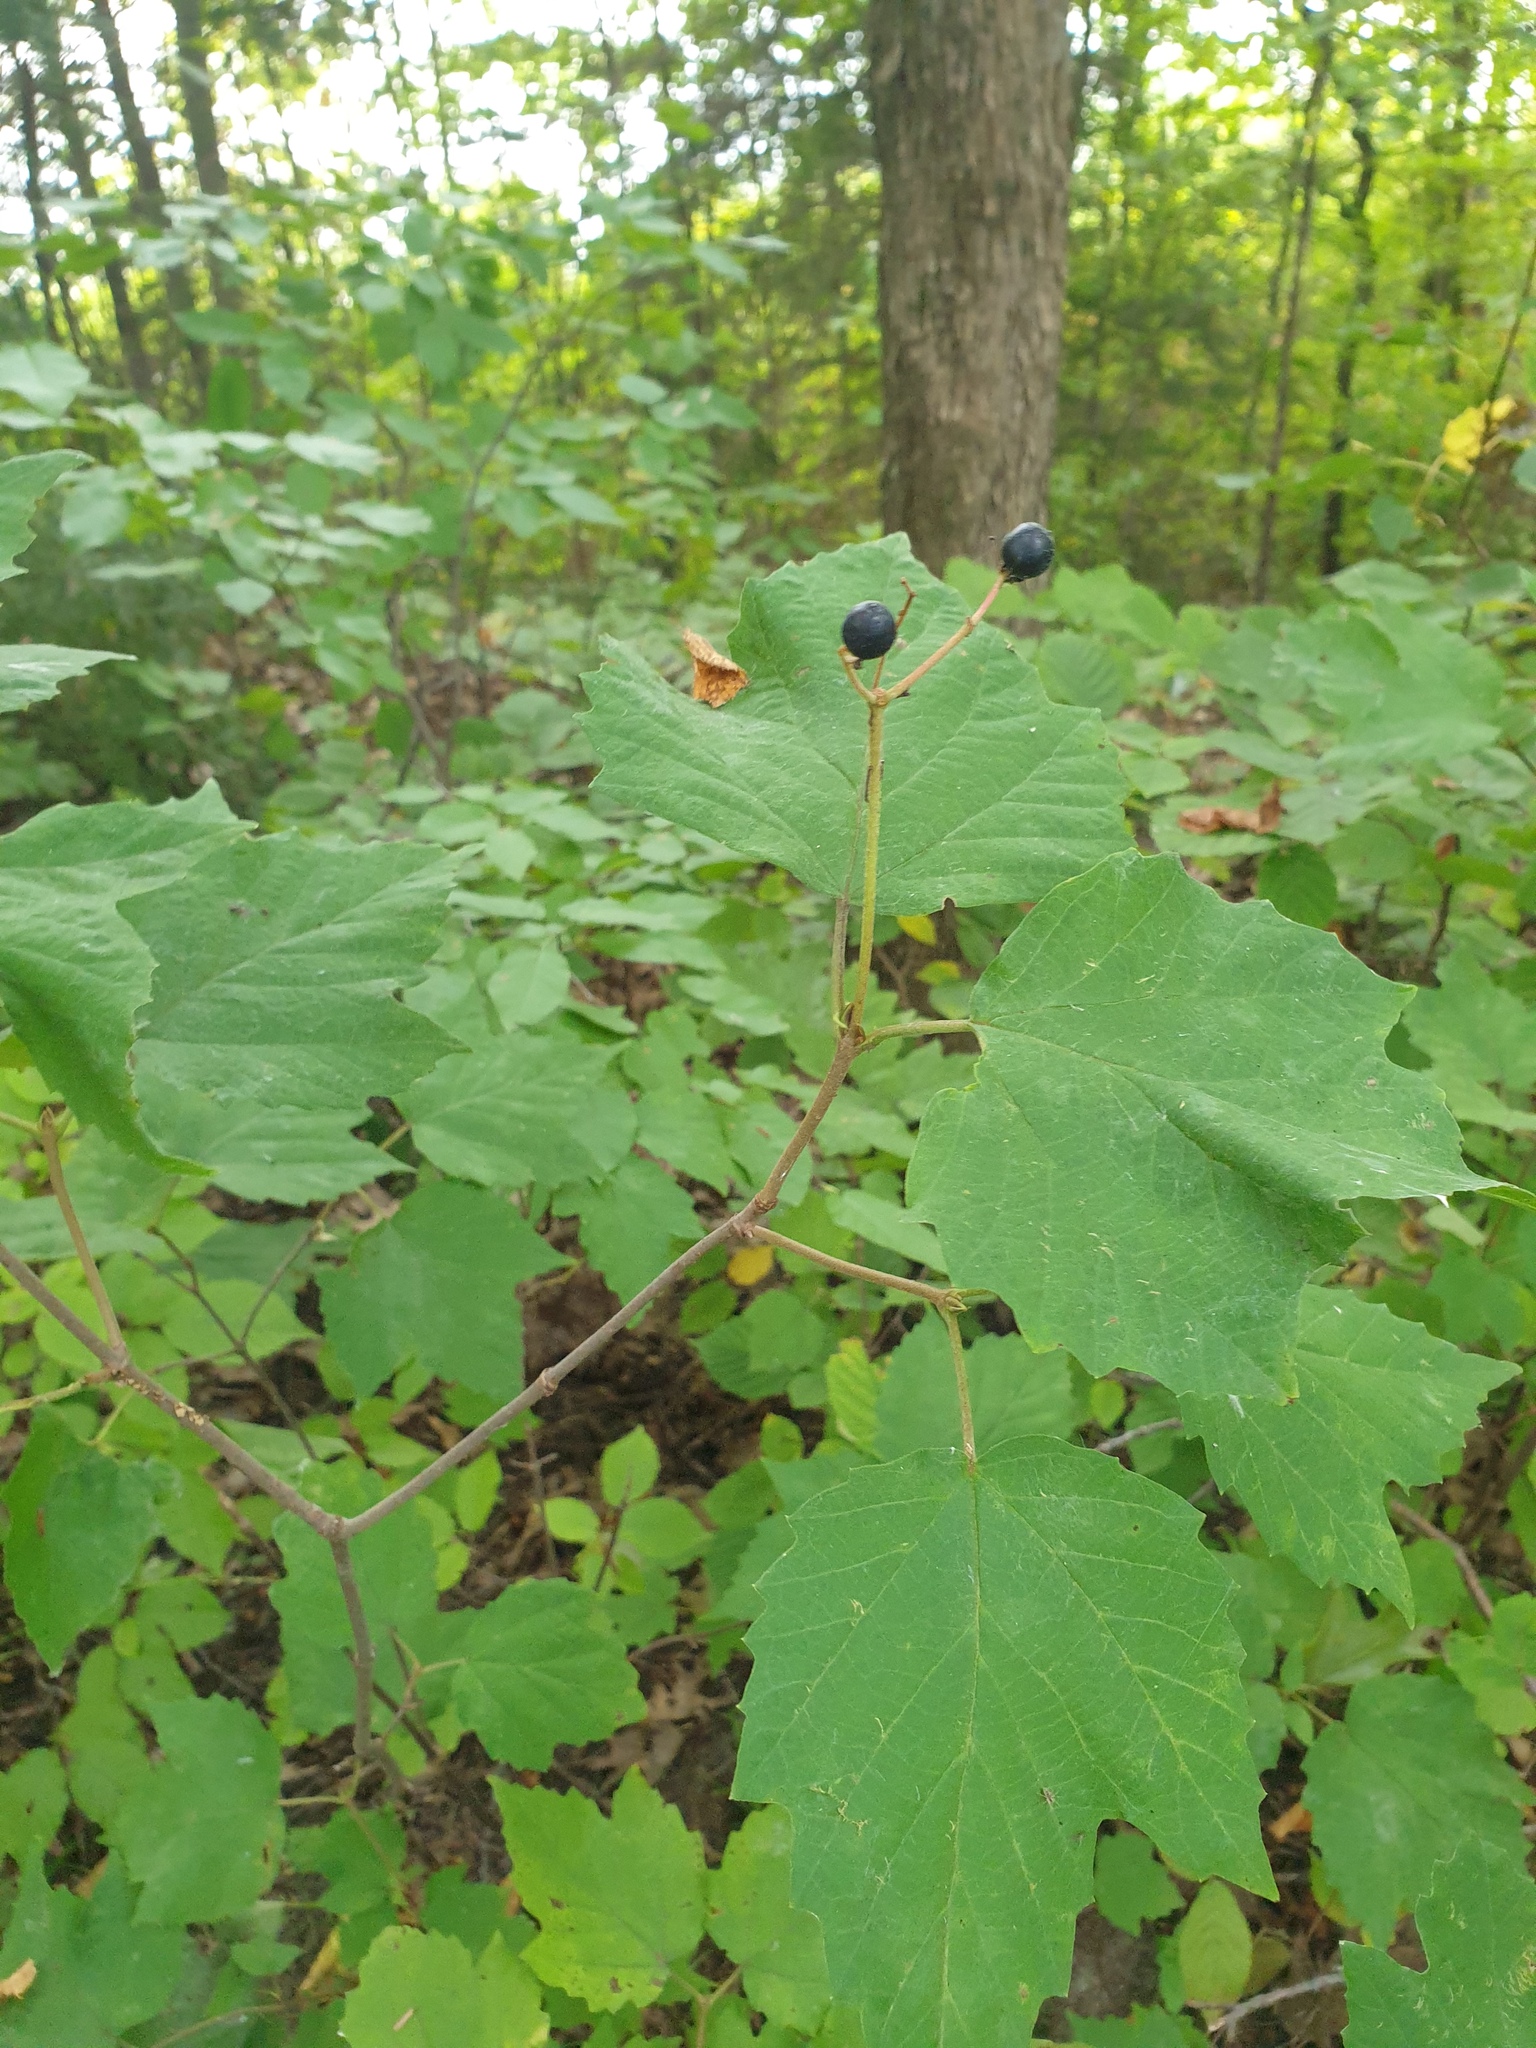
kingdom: Plantae
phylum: Tracheophyta
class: Magnoliopsida
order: Dipsacales
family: Viburnaceae
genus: Viburnum
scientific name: Viburnum acerifolium
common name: Dockmackie
